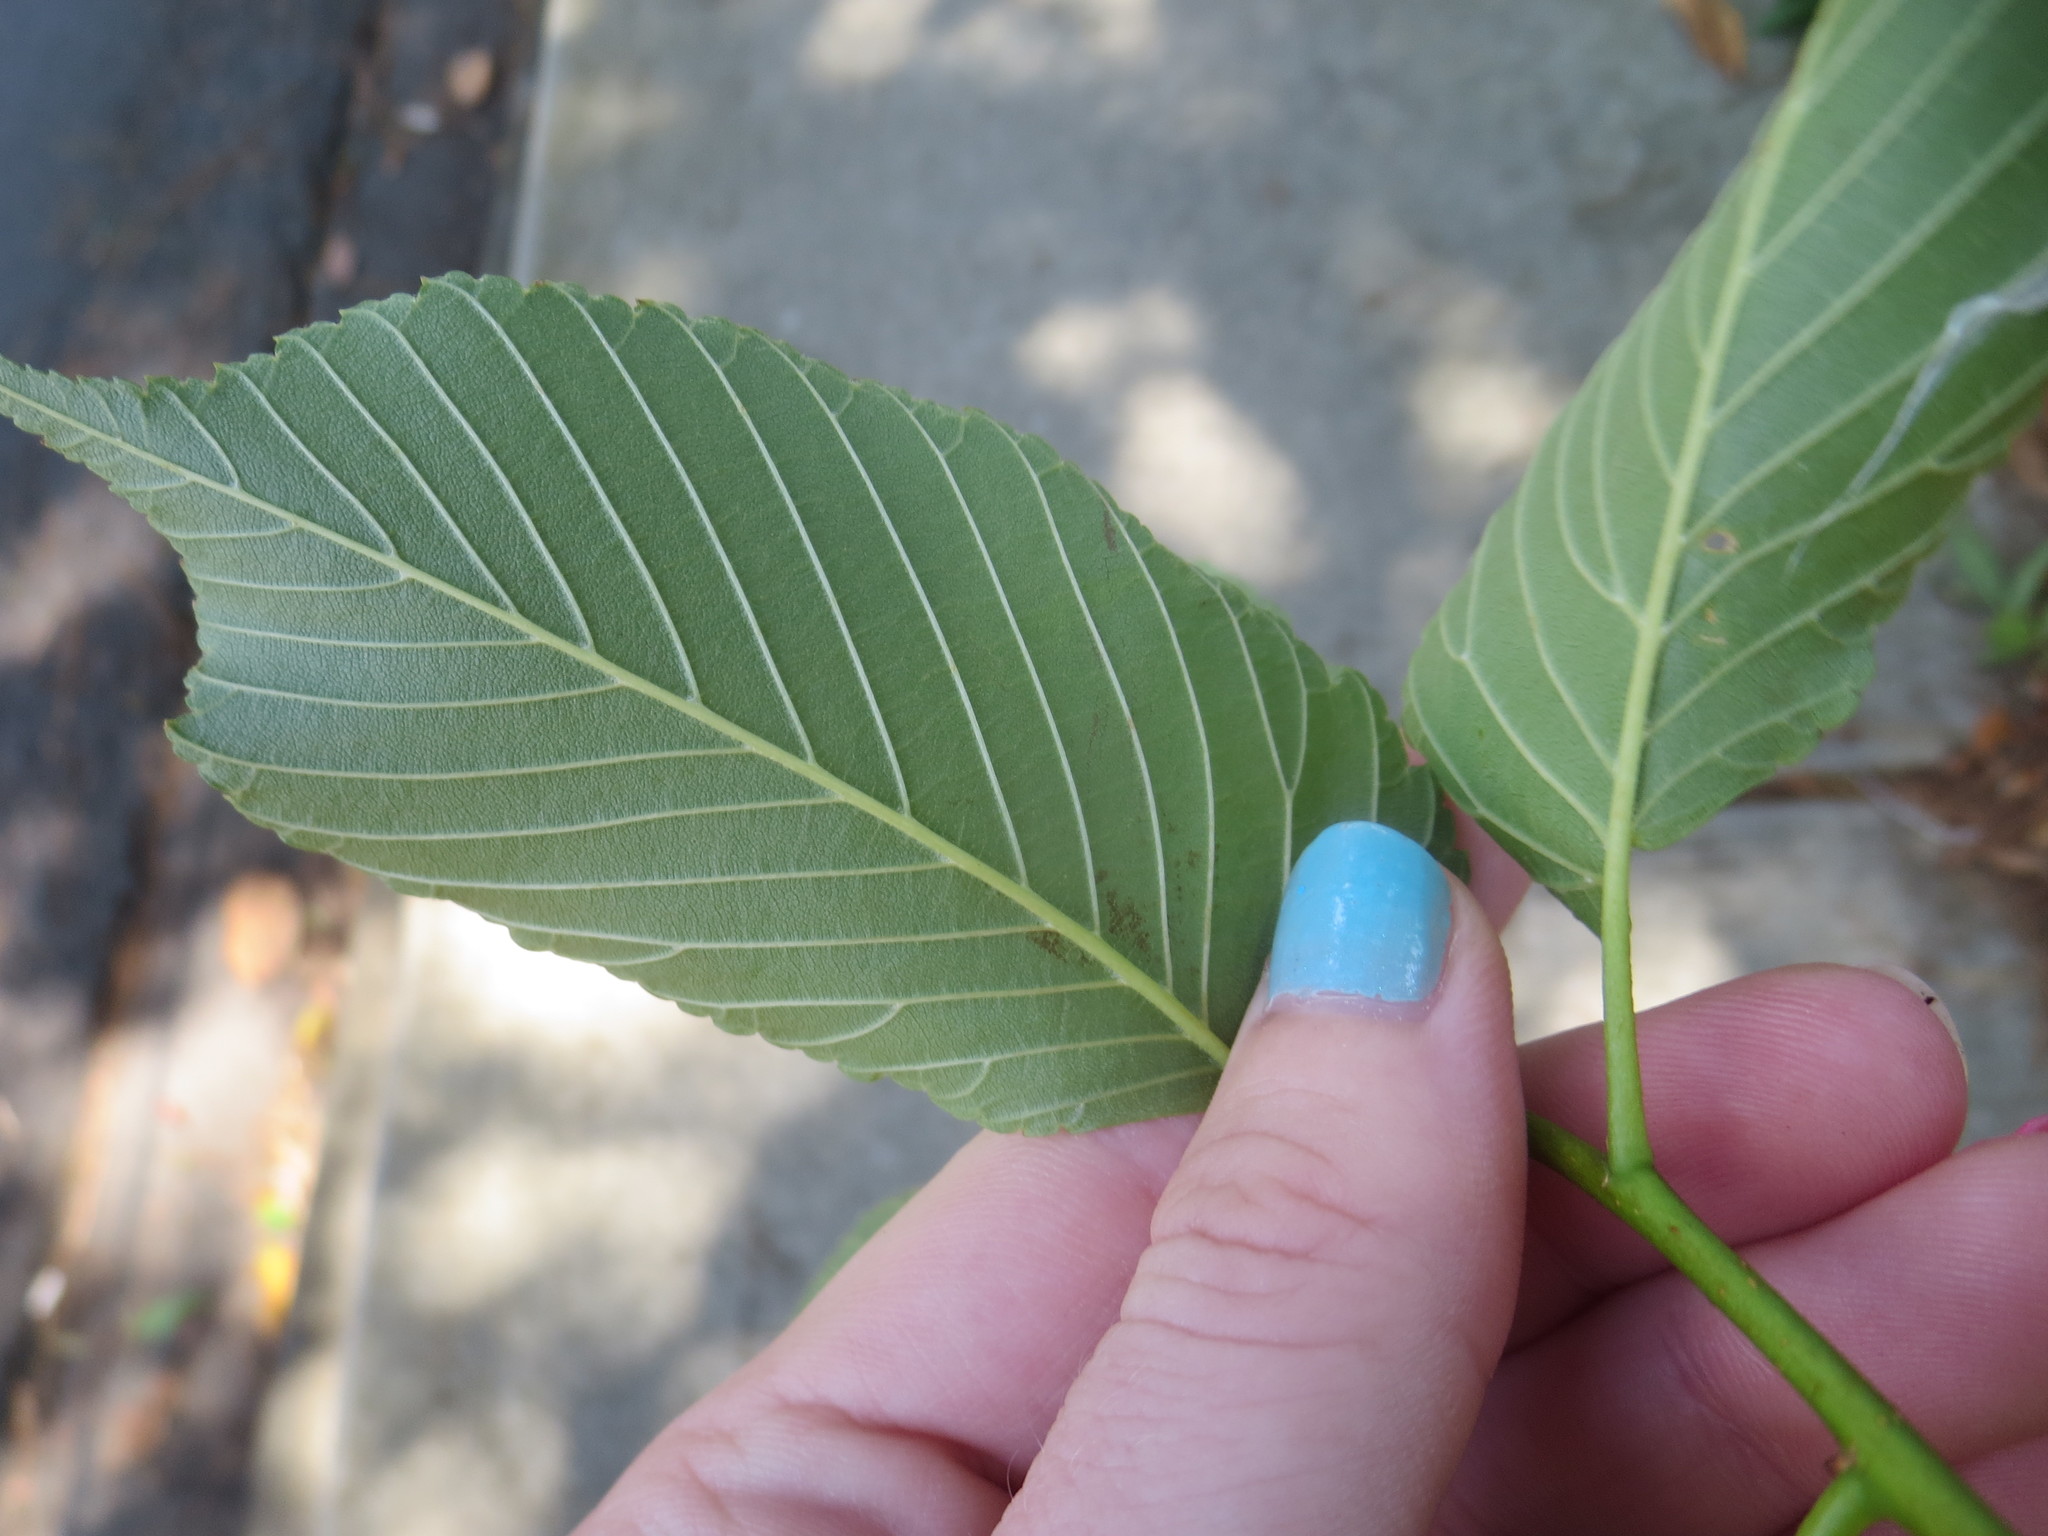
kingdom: Plantae
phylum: Tracheophyta
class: Magnoliopsida
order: Rosales
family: Ulmaceae
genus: Ulmus
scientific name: Ulmus americana
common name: American elm
